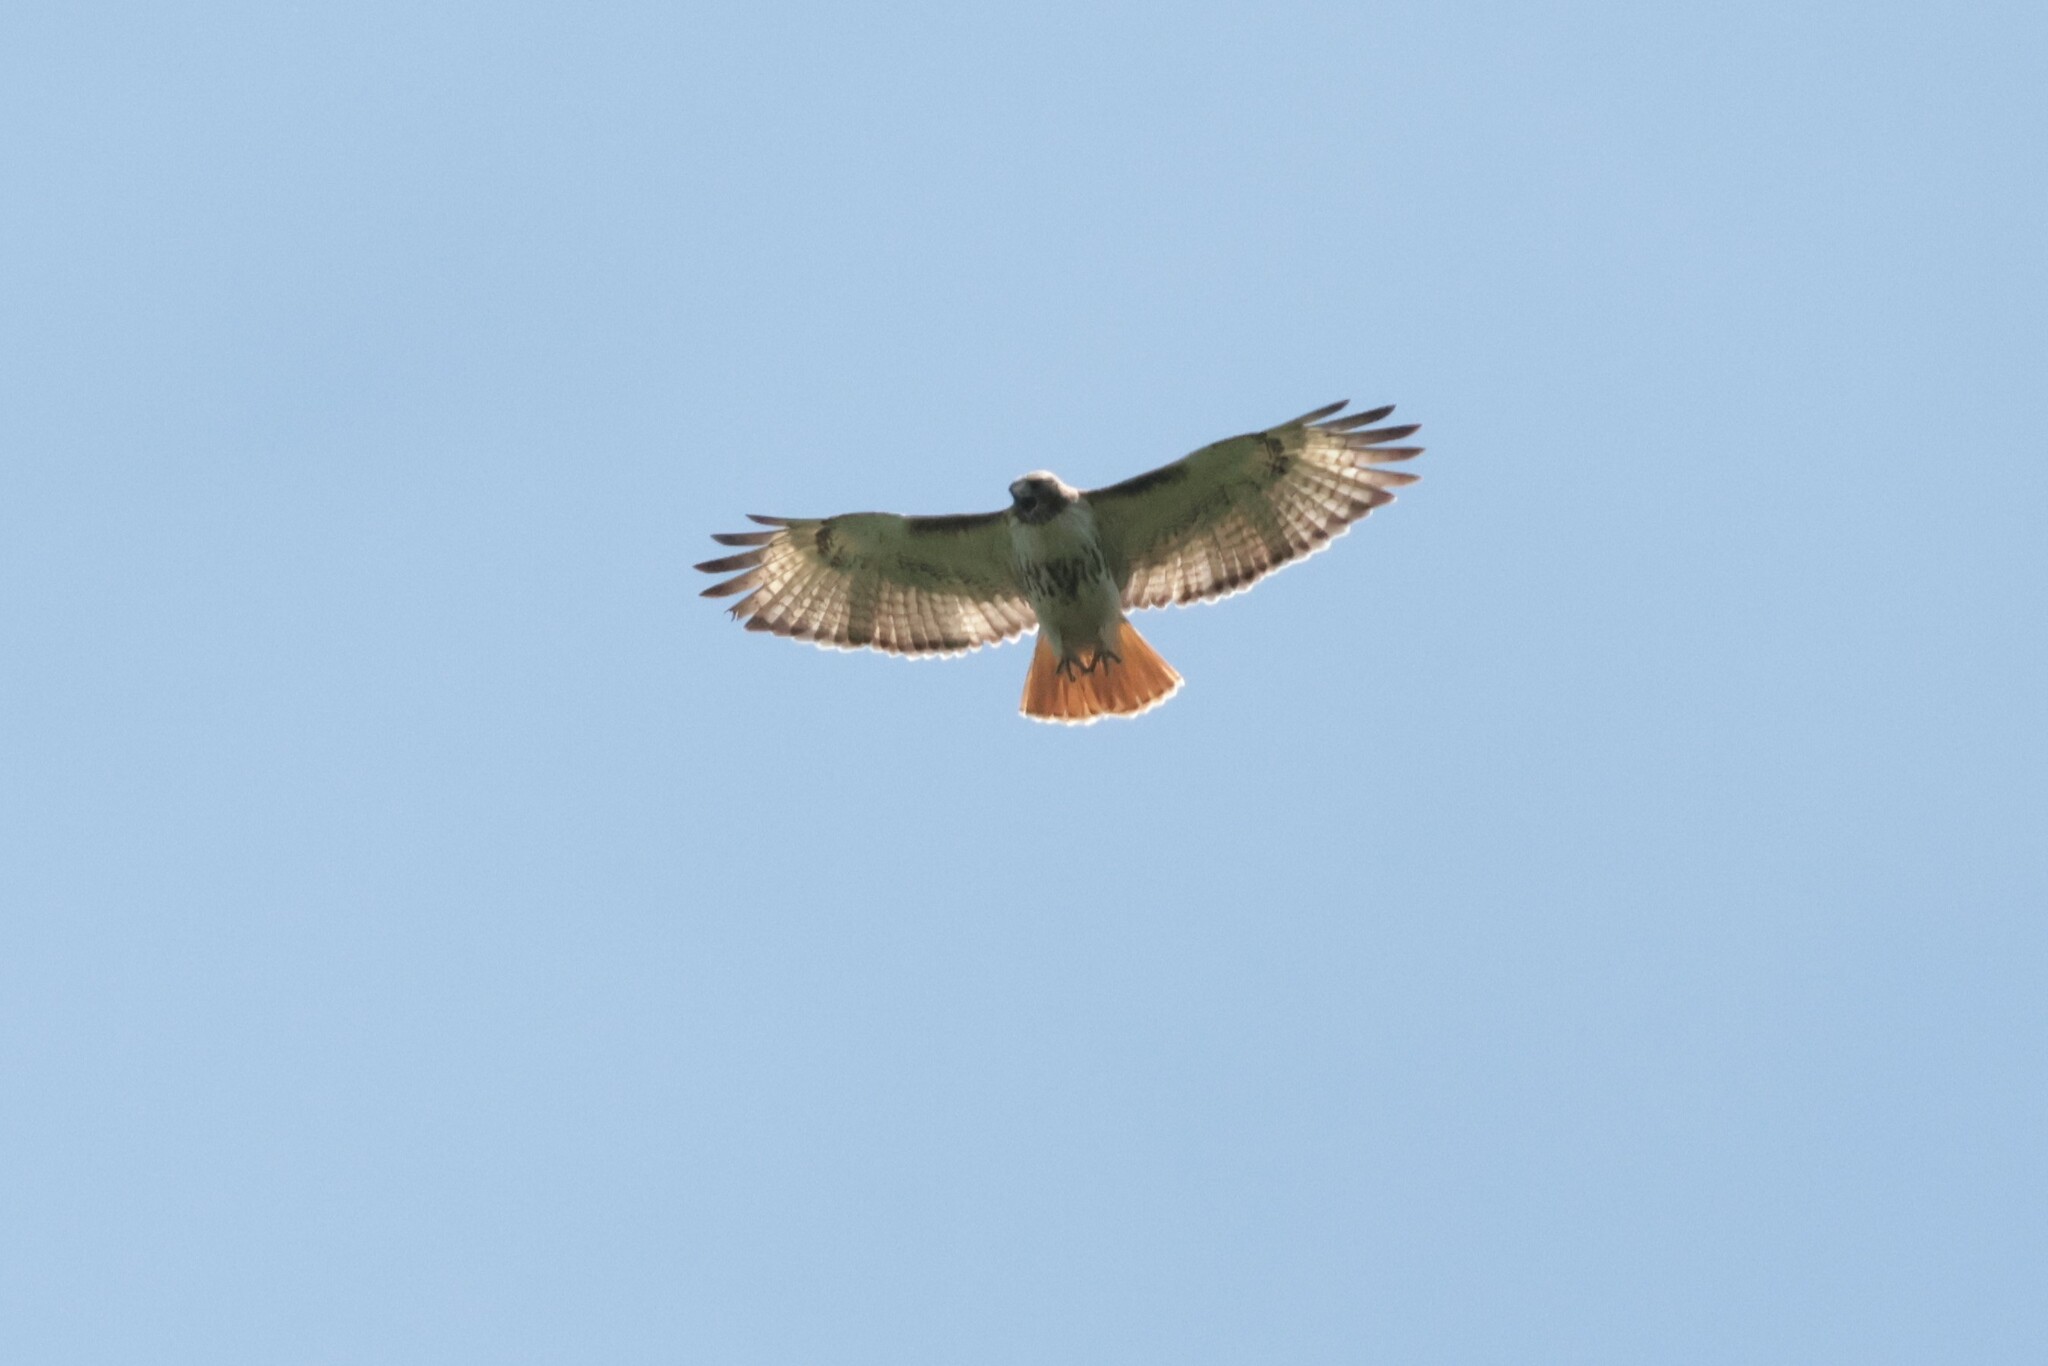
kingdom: Animalia
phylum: Chordata
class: Aves
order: Accipitriformes
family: Accipitridae
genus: Buteo
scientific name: Buteo jamaicensis
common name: Red-tailed hawk
